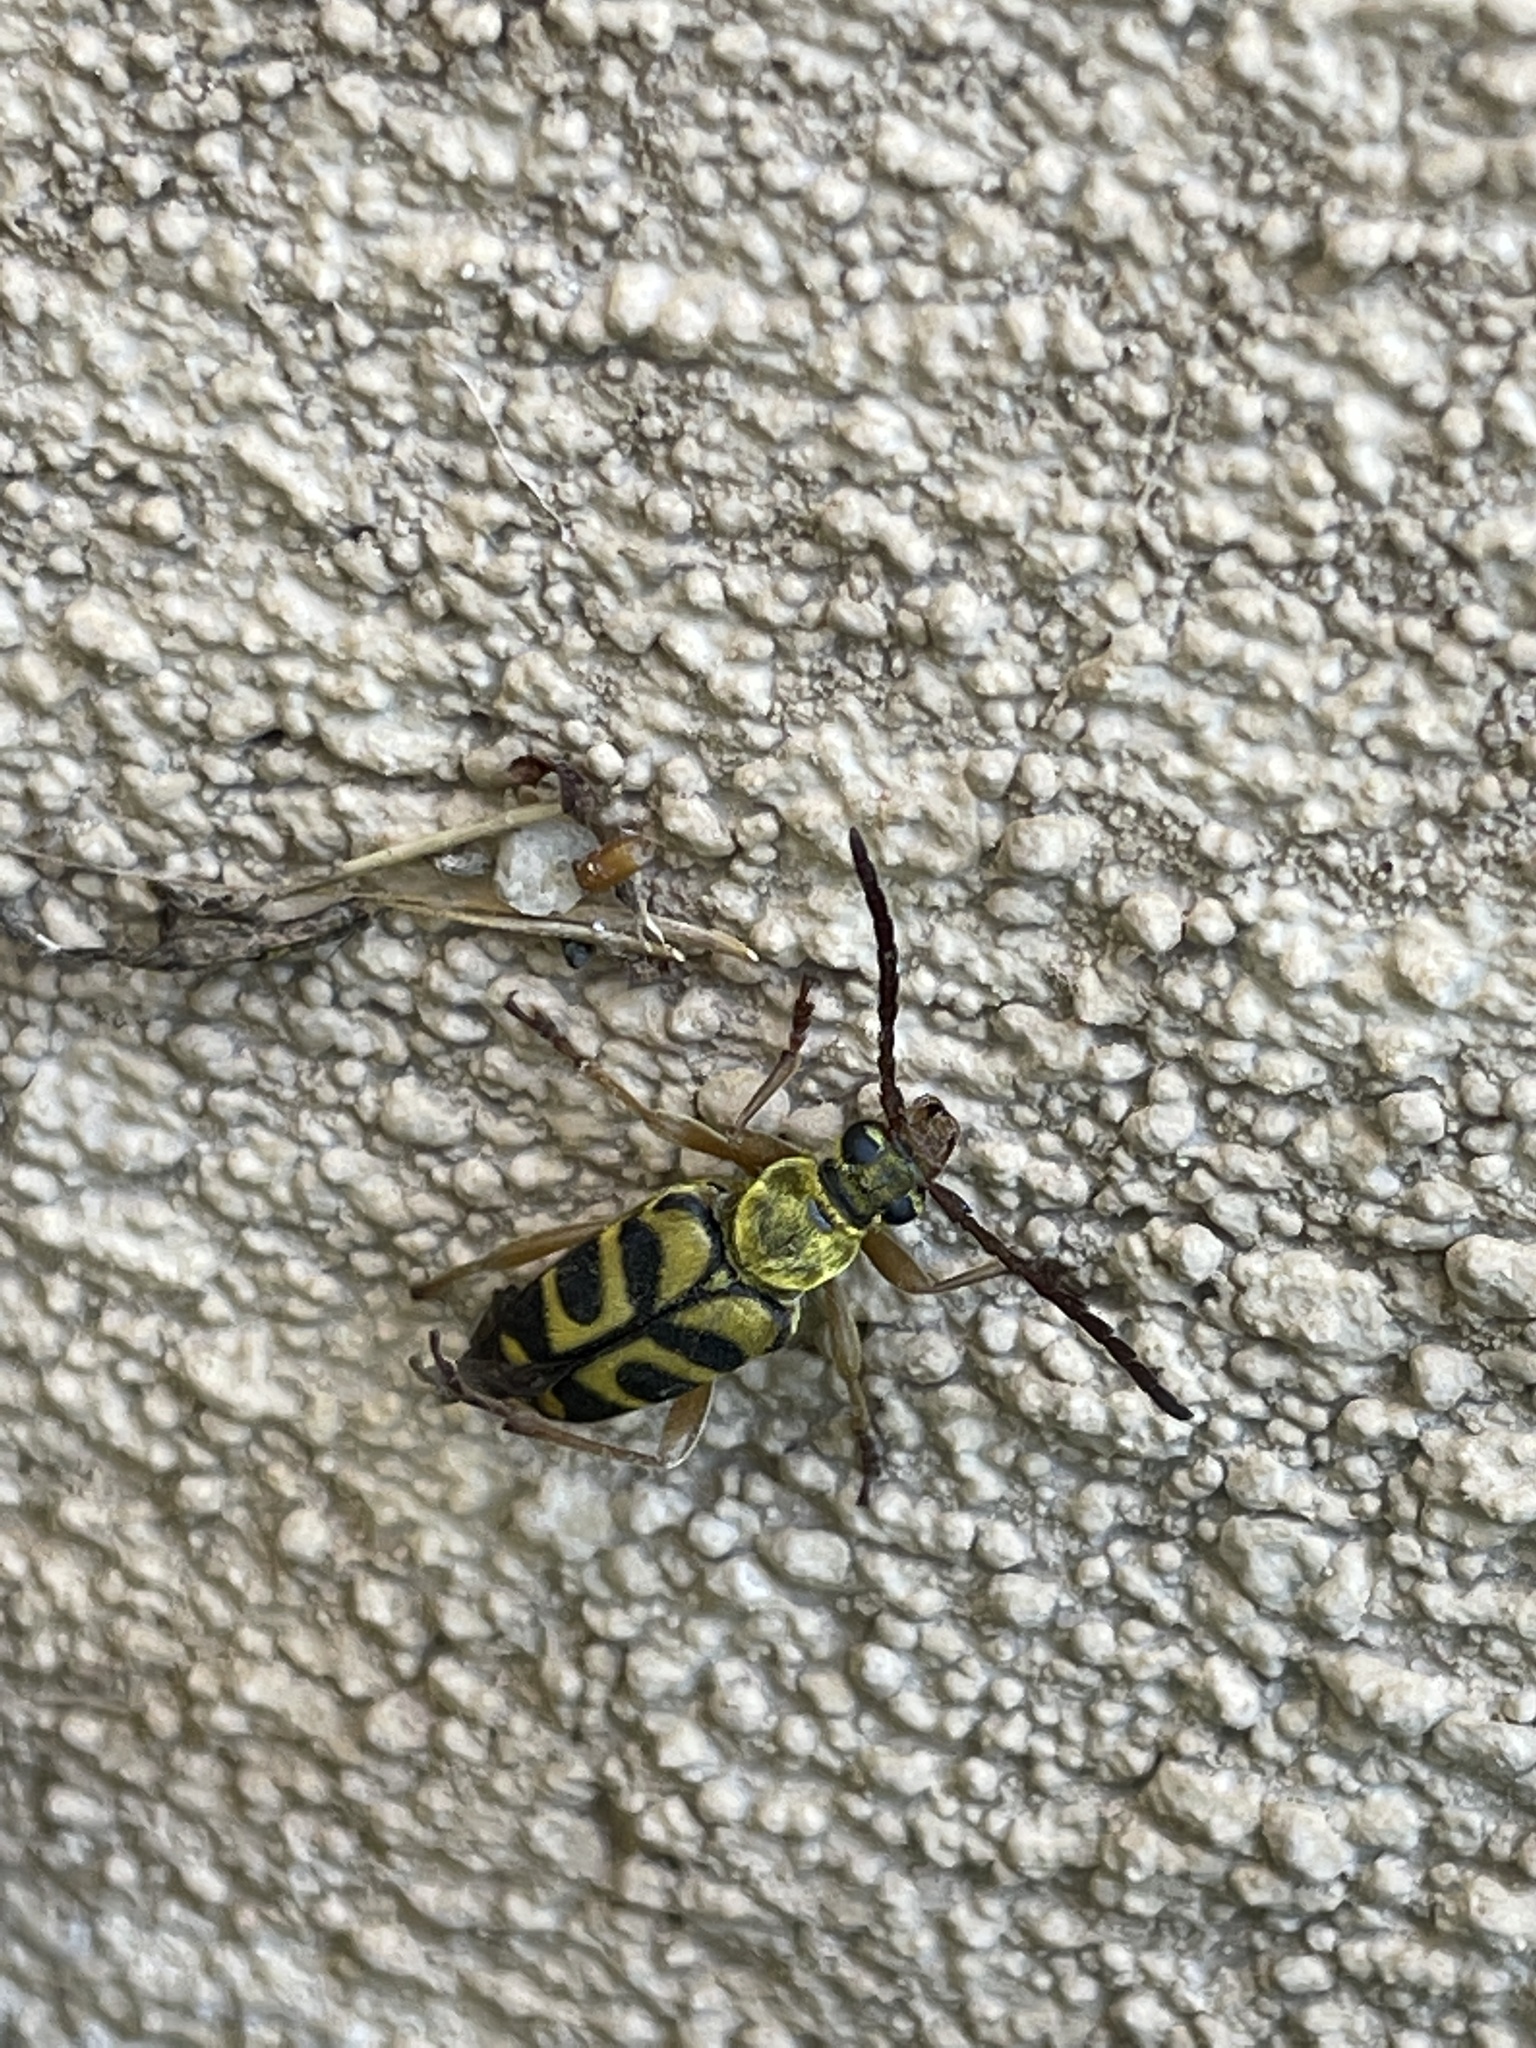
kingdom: Animalia
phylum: Arthropoda
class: Insecta
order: Coleoptera
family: Cerambycidae
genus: Strophiona
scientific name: Strophiona tigrina
